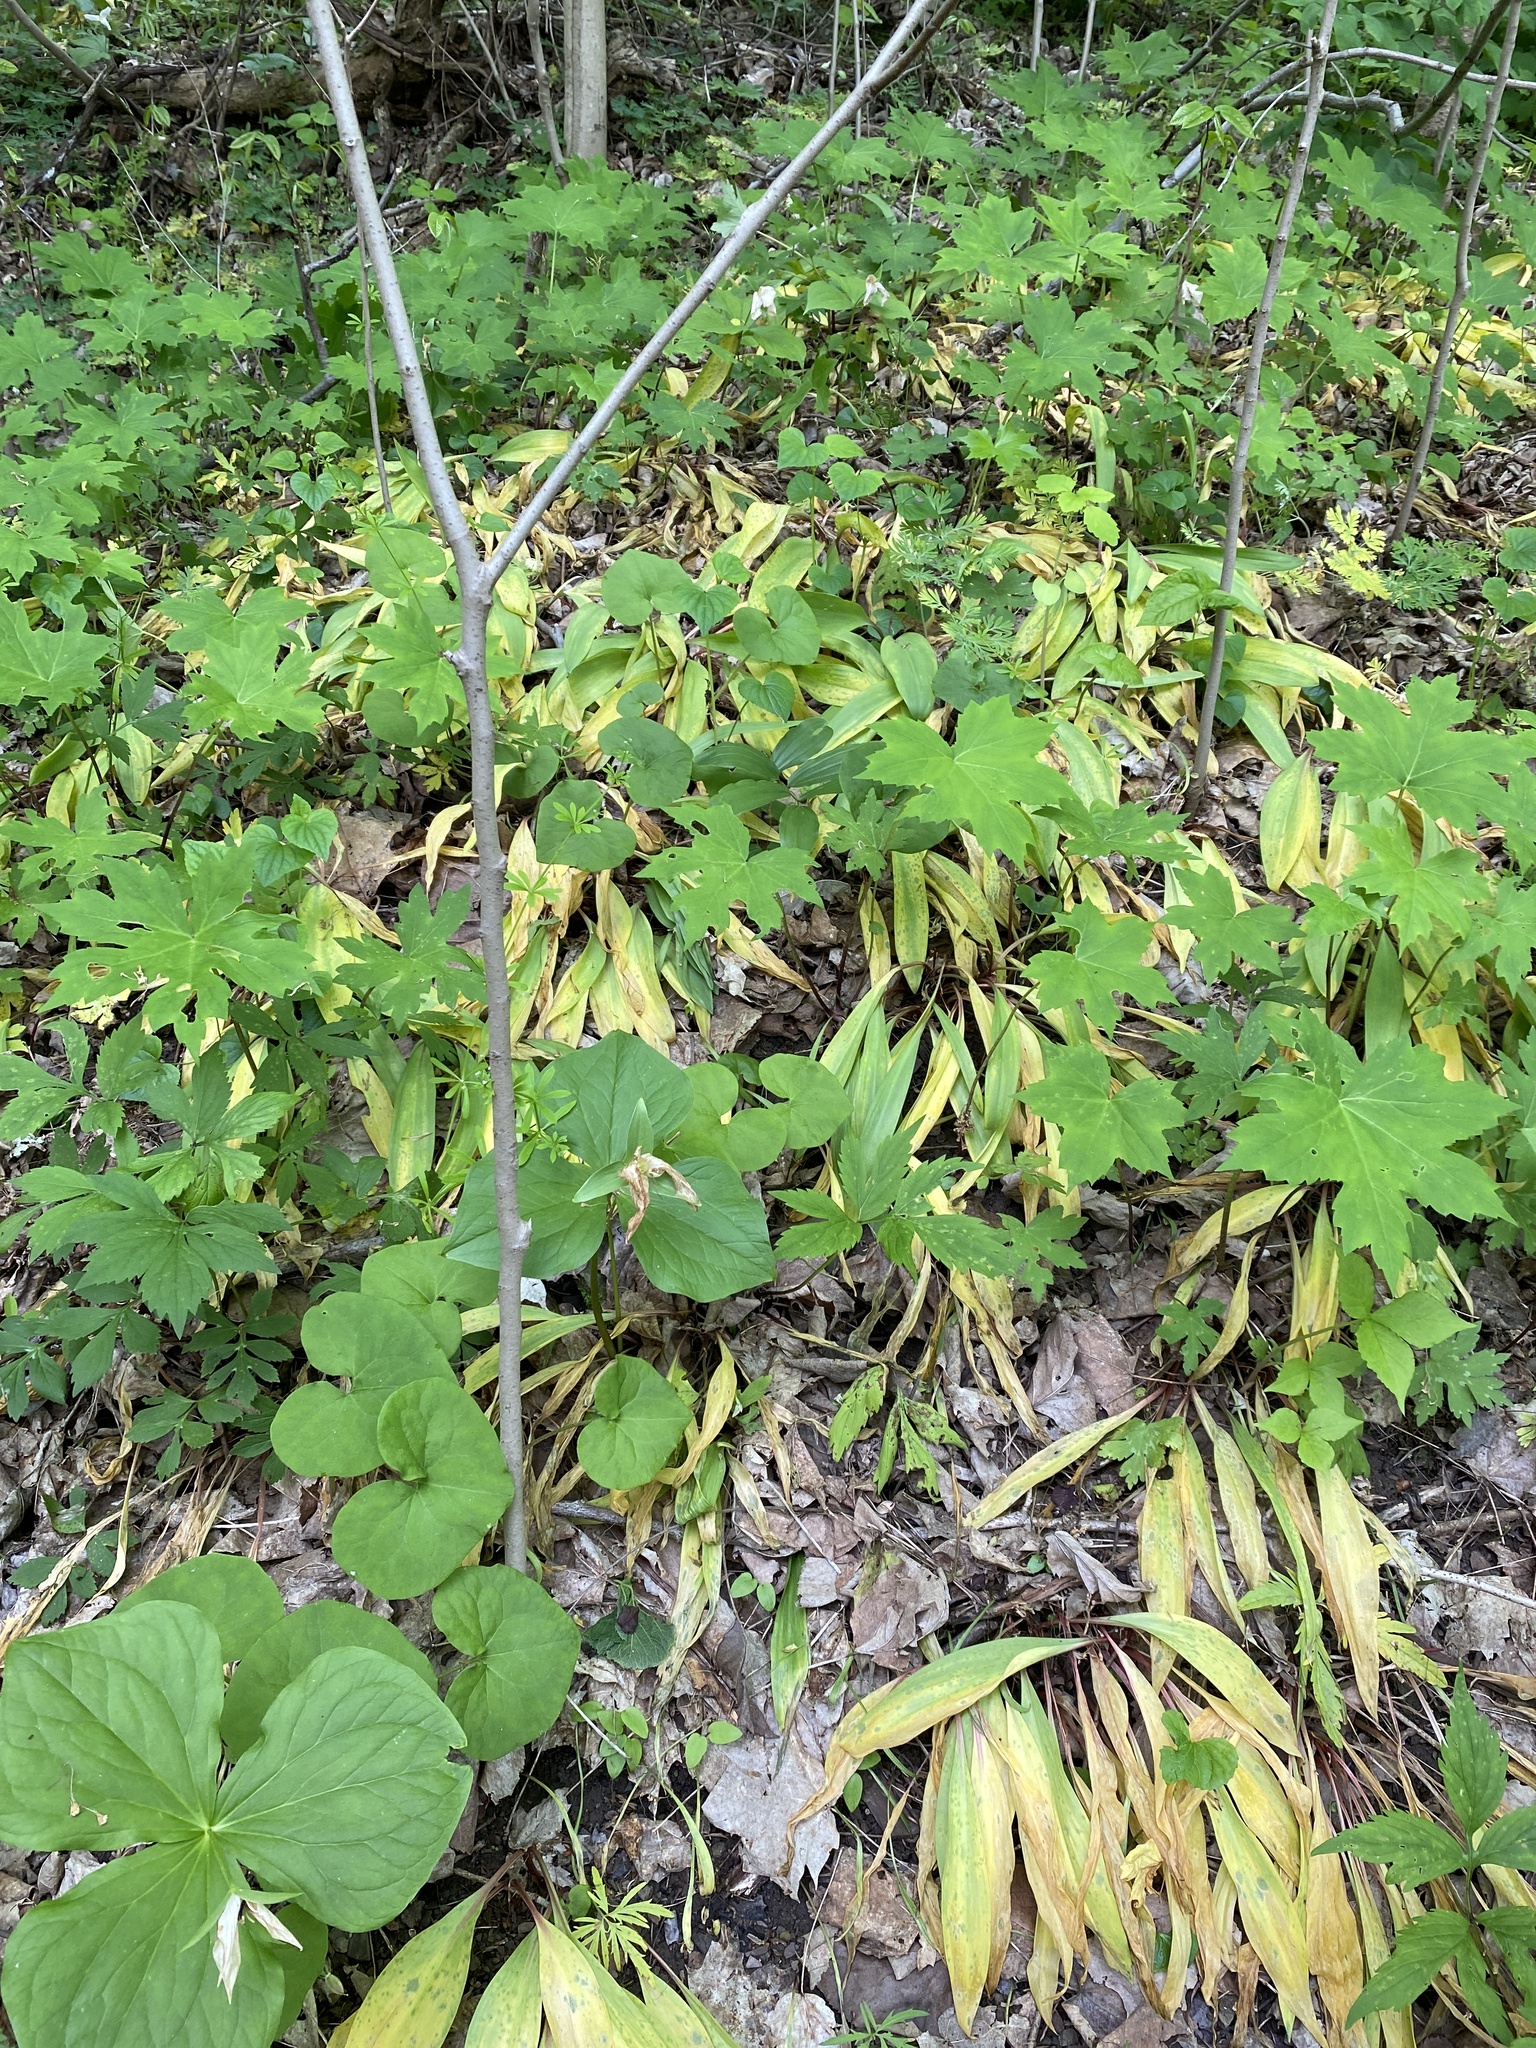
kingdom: Plantae
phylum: Tracheophyta
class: Liliopsida
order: Asparagales
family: Amaryllidaceae
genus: Allium
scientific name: Allium tricoccum
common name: Ramp
